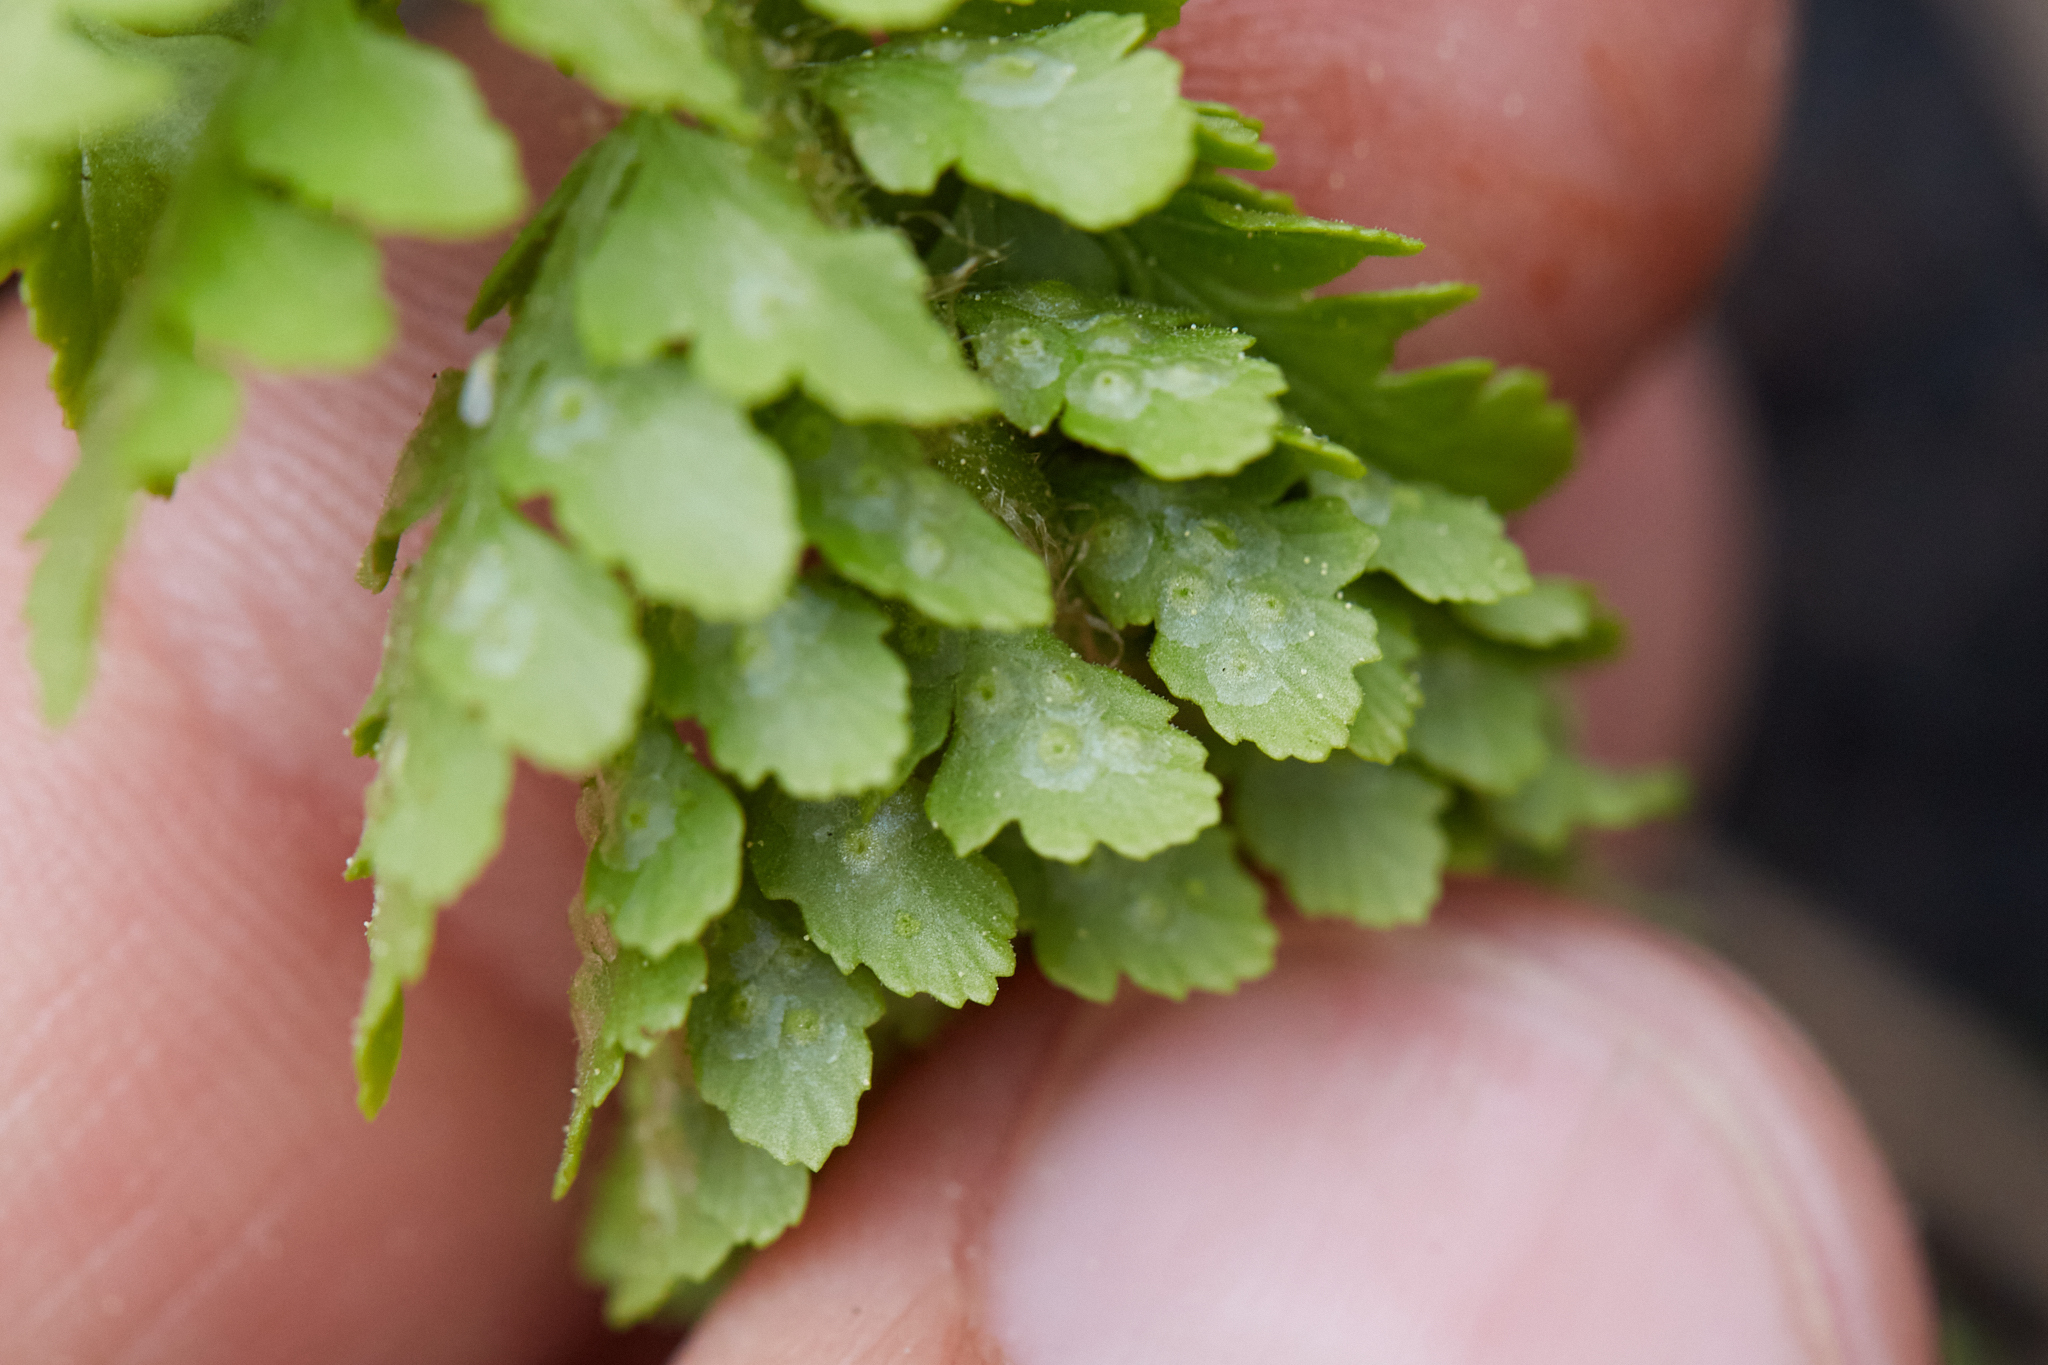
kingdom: Plantae
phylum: Tracheophyta
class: Polypodiopsida
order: Polypodiales
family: Dryopteridaceae
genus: Polystichum
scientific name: Polystichum lemmonii
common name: Lemmon's holly fern
